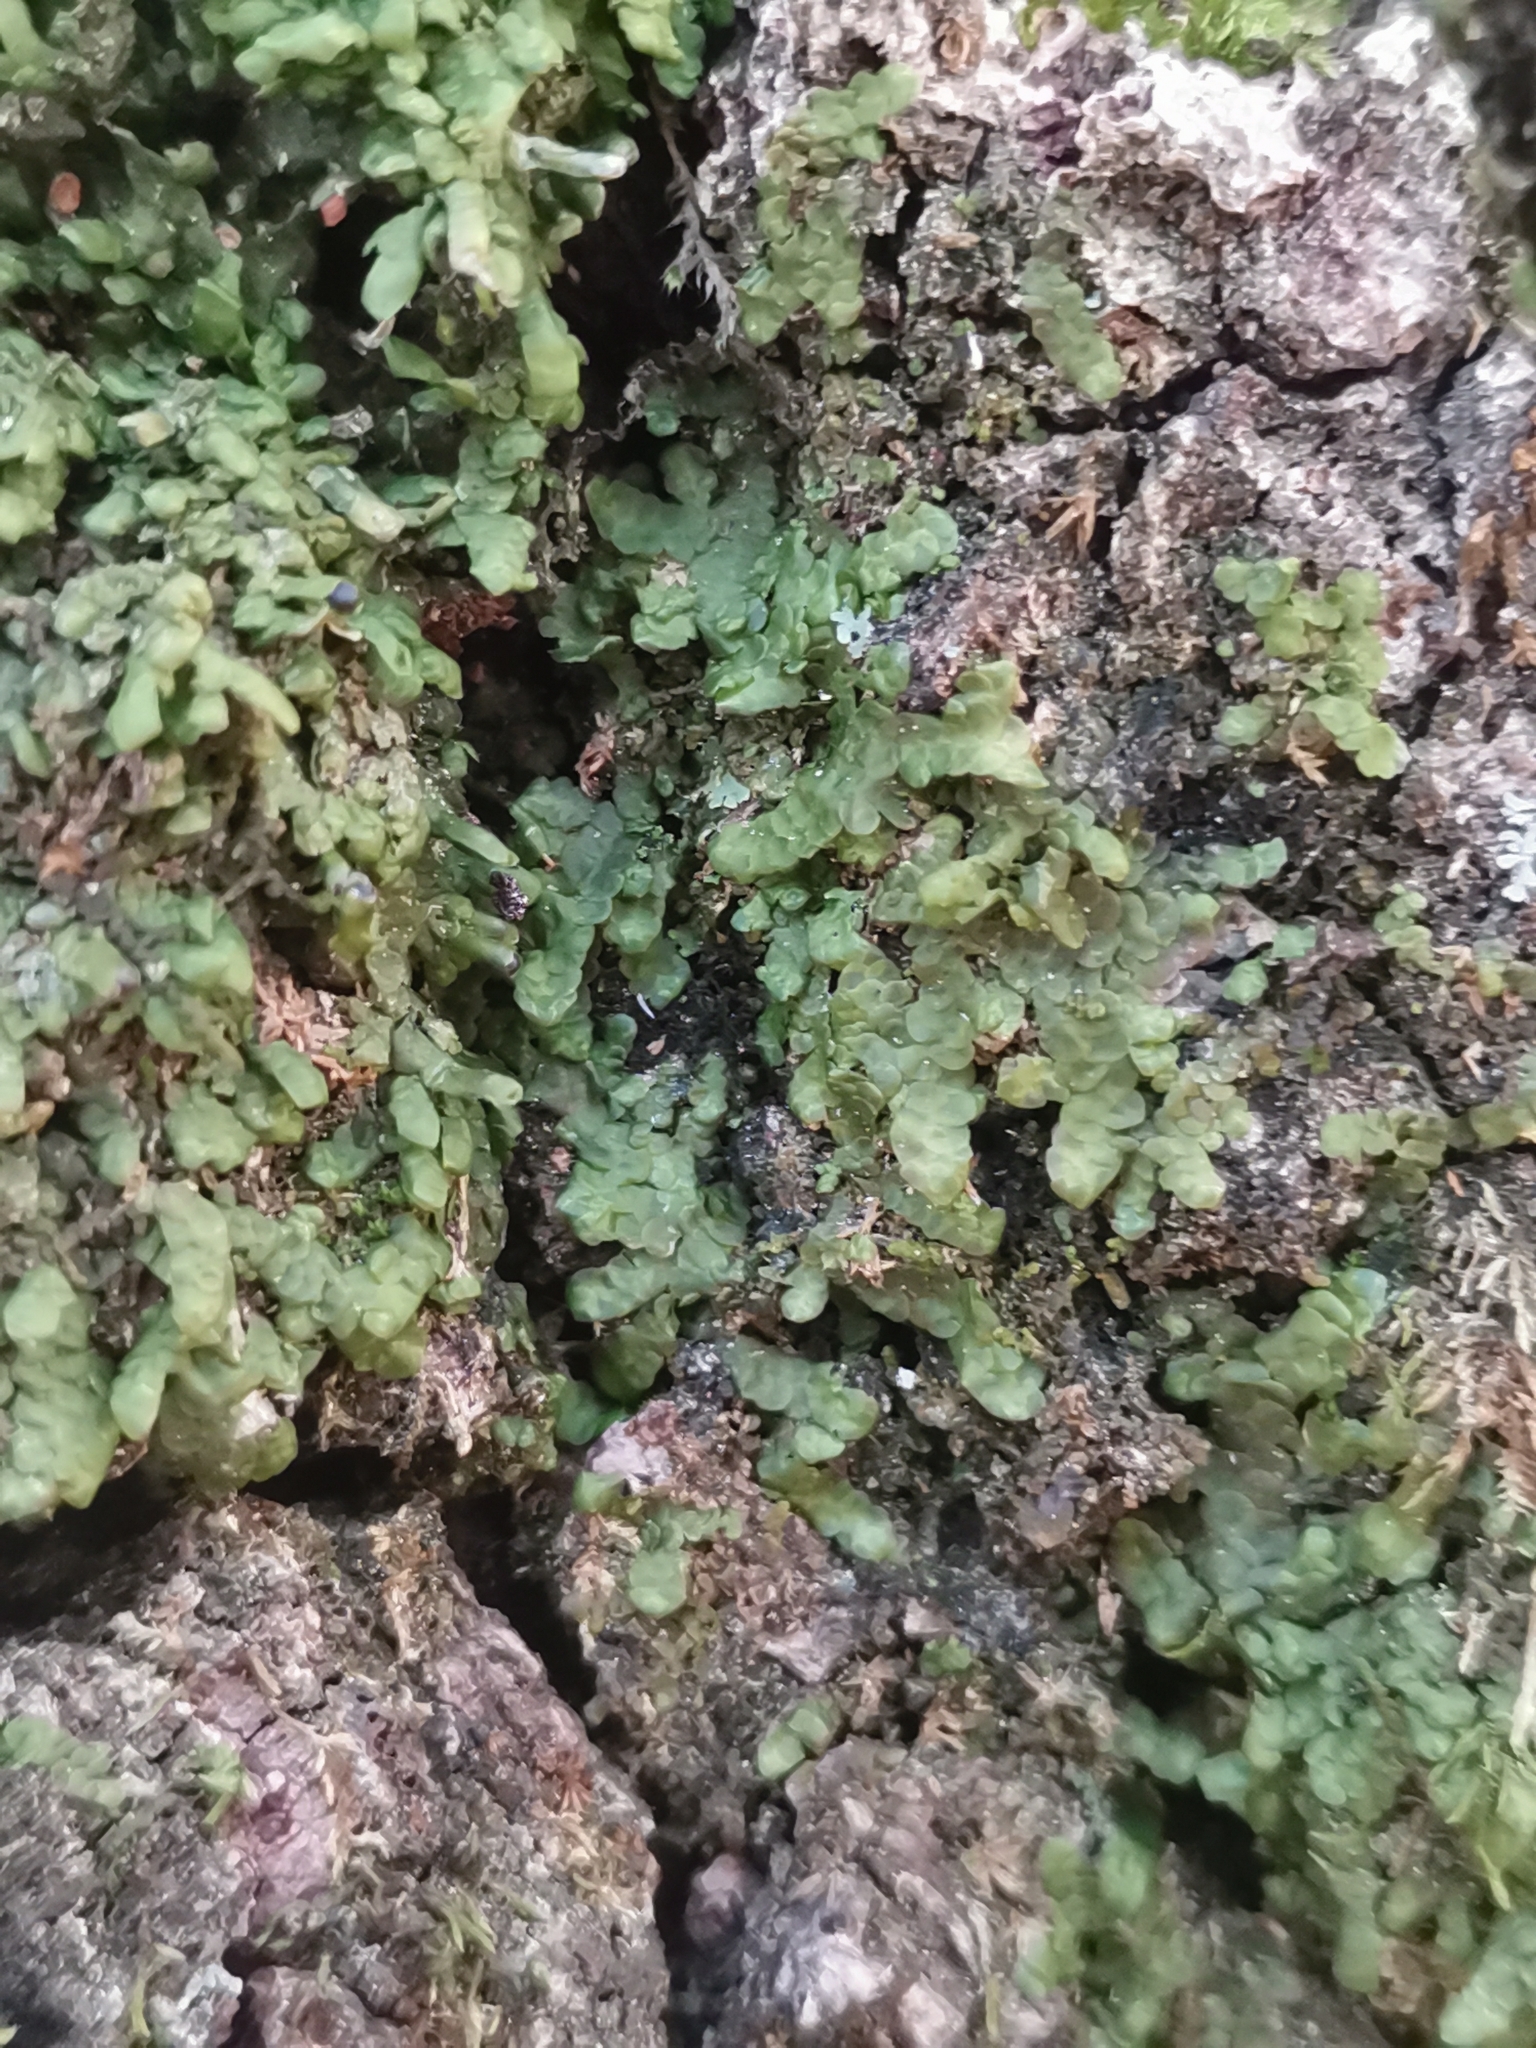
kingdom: Plantae
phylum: Marchantiophyta
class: Jungermanniopsida
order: Porellales
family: Radulaceae
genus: Radula
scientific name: Radula complanata
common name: Flat-leaved scalewort
